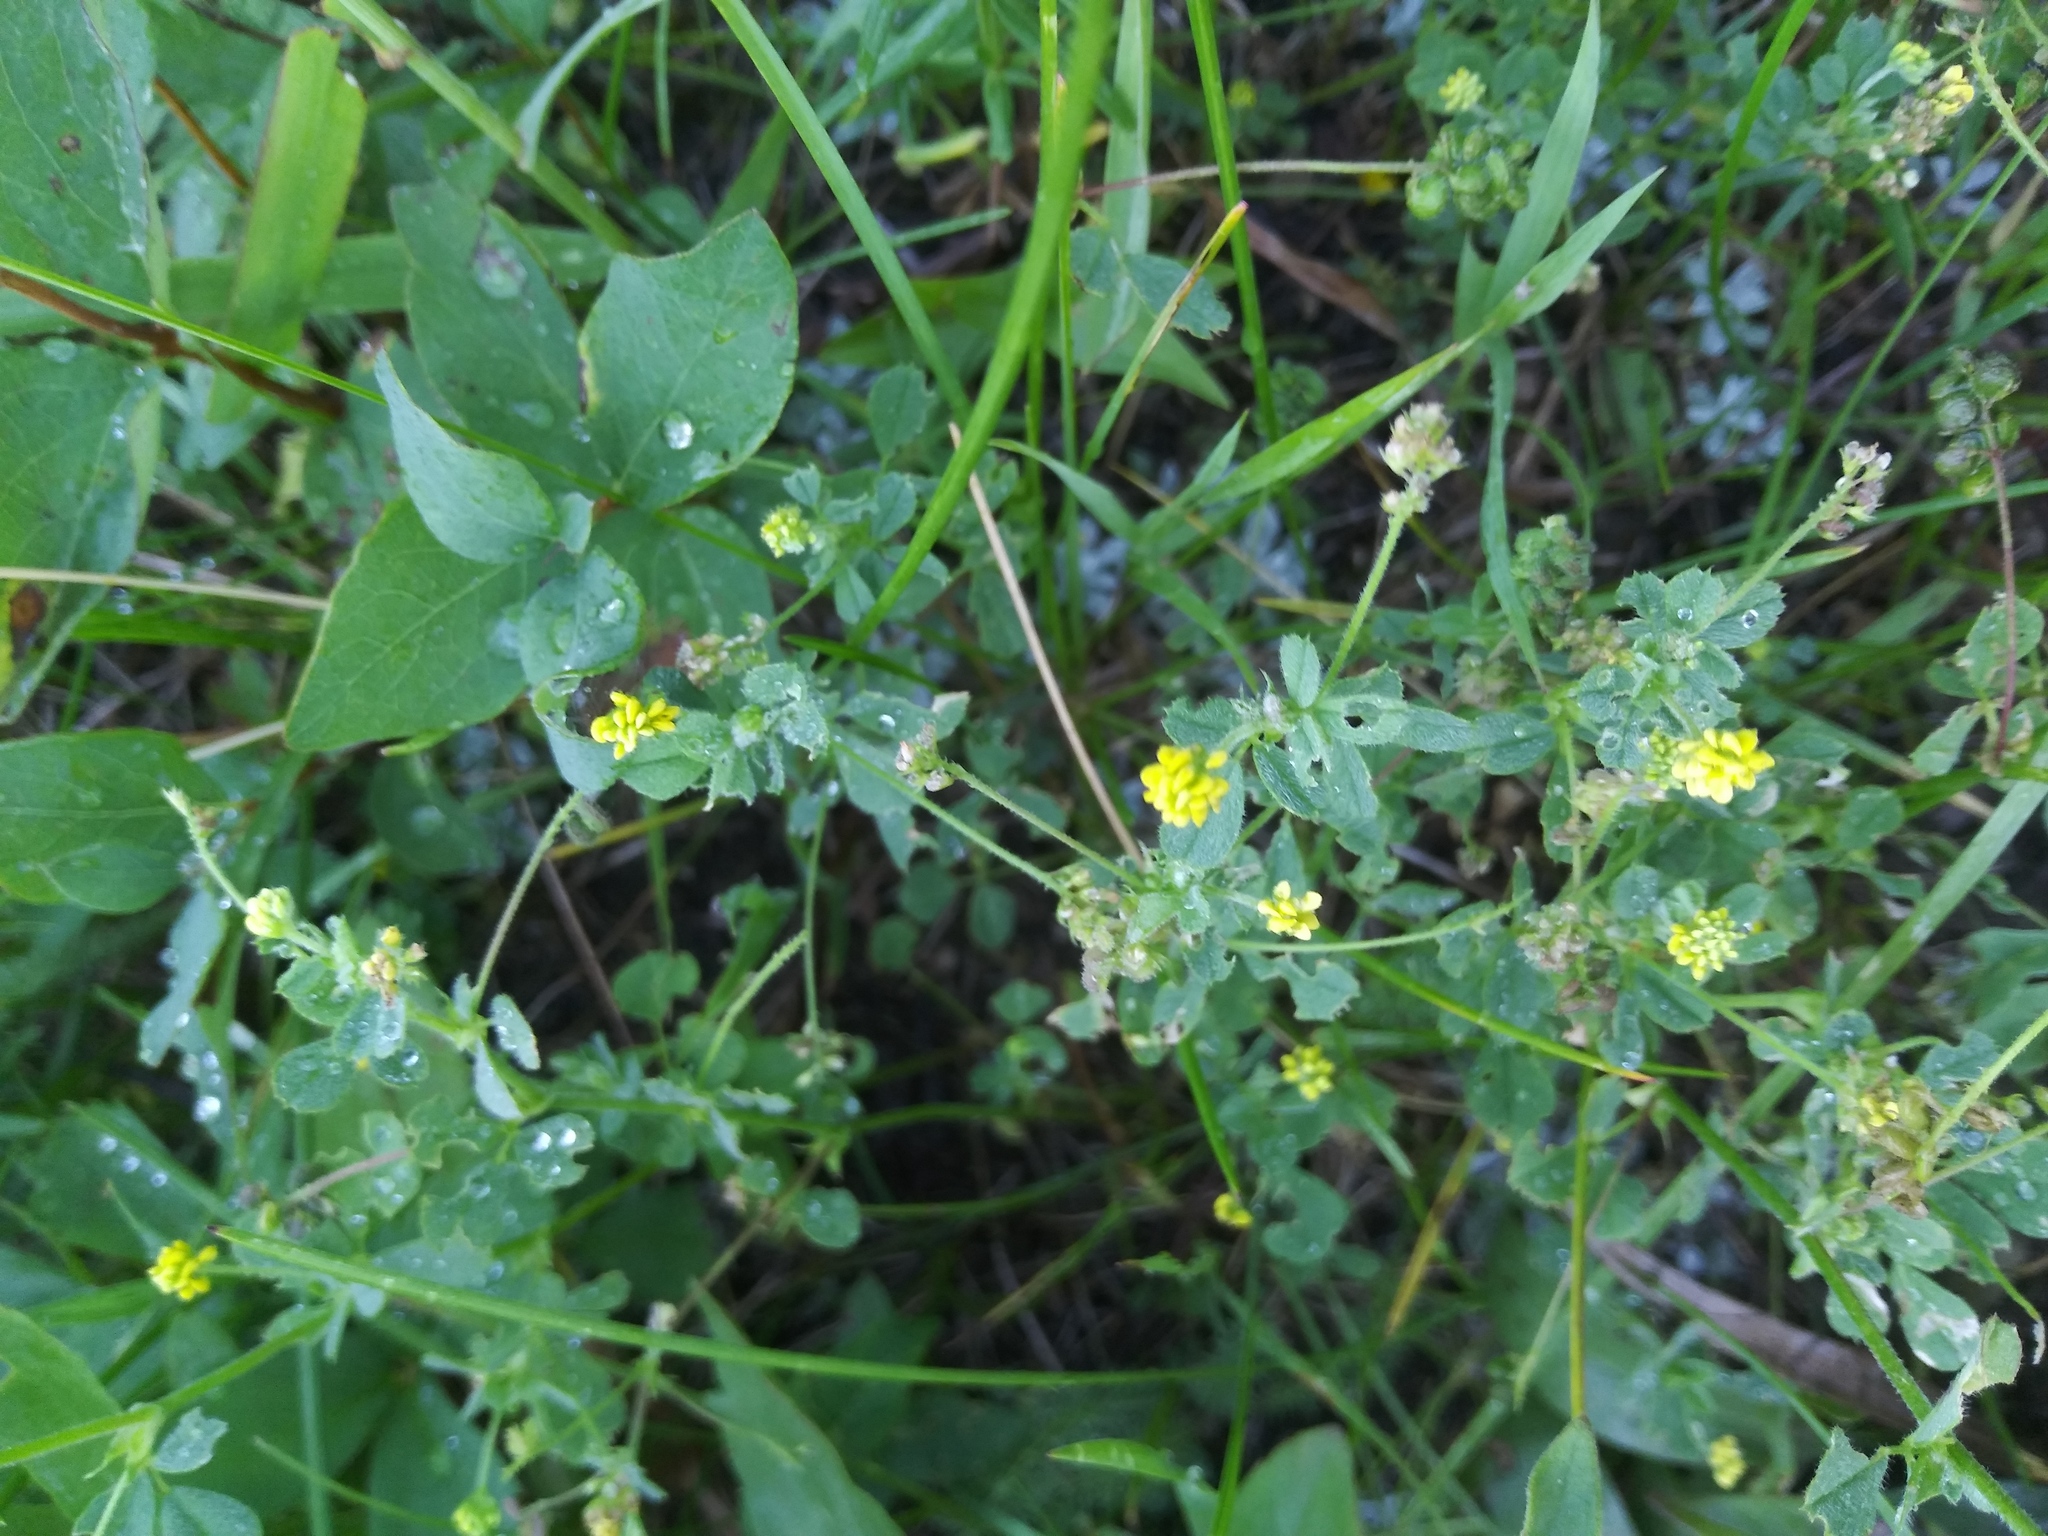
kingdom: Plantae
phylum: Tracheophyta
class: Magnoliopsida
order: Fabales
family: Fabaceae
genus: Medicago
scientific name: Medicago lupulina
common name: Black medick
